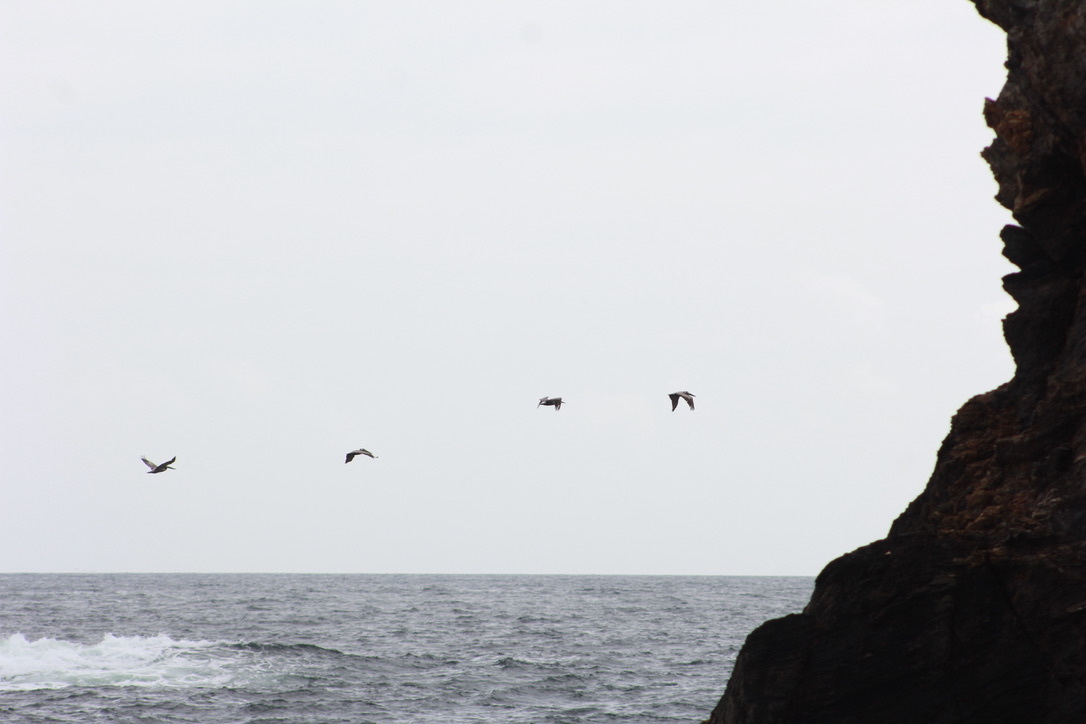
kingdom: Animalia
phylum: Chordata
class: Aves
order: Pelecaniformes
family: Pelecanidae
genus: Pelecanus
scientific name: Pelecanus occidentalis
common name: Brown pelican
